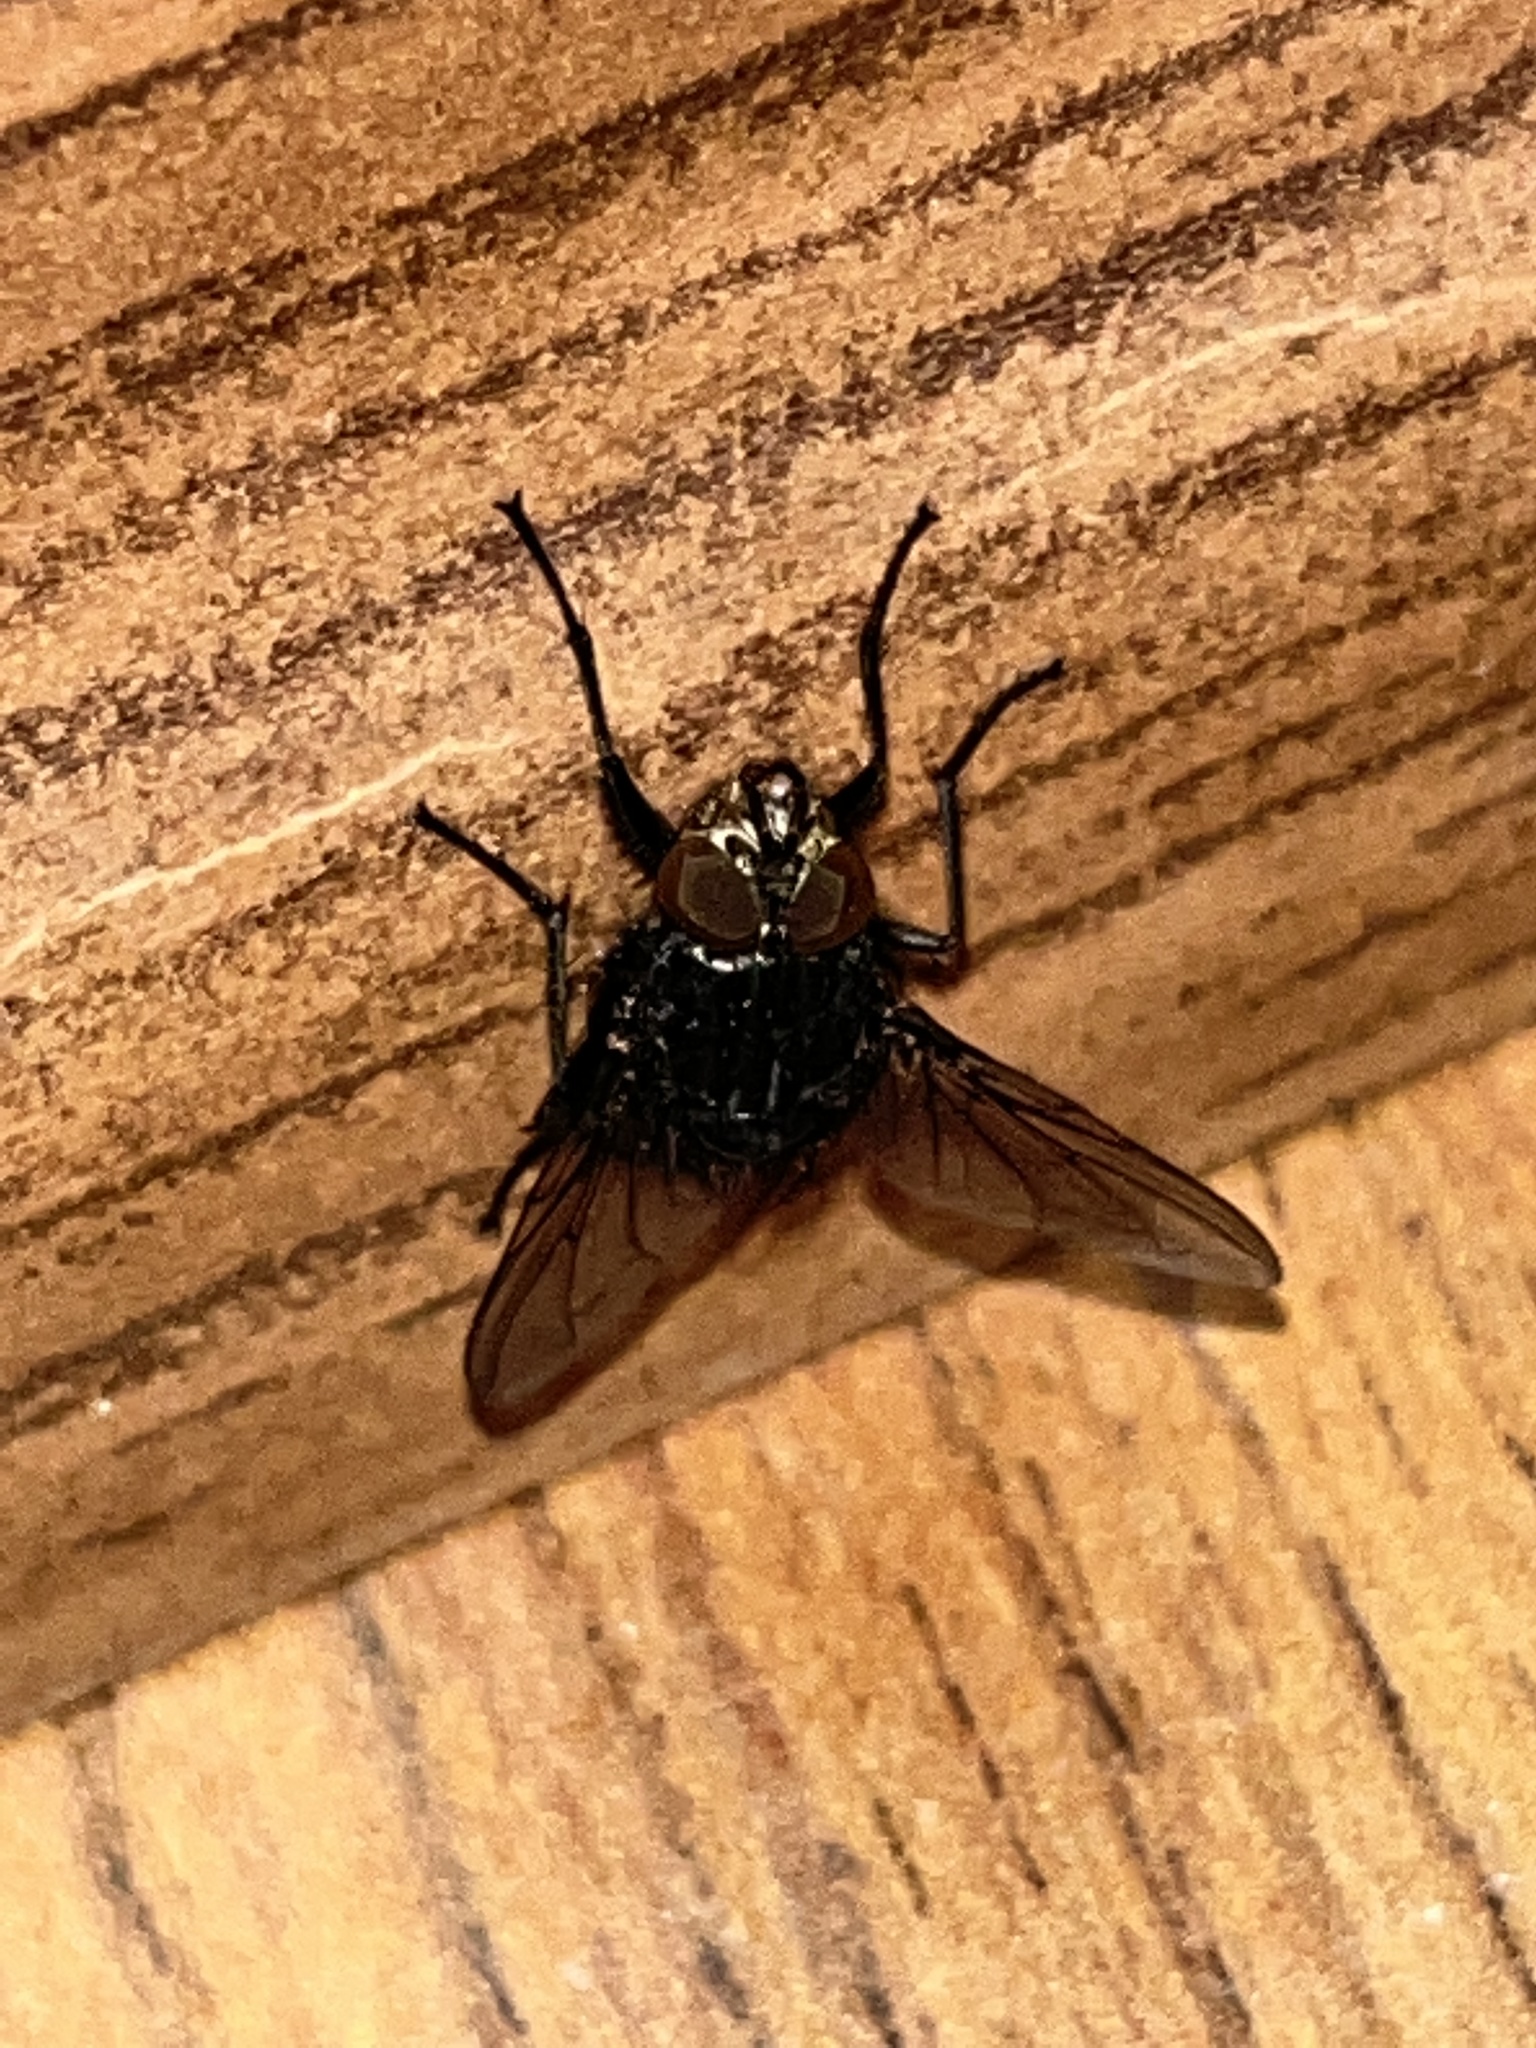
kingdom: Animalia
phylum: Arthropoda
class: Insecta
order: Diptera
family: Calliphoridae
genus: Calliphora
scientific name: Calliphora vicina
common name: Common blow flie
